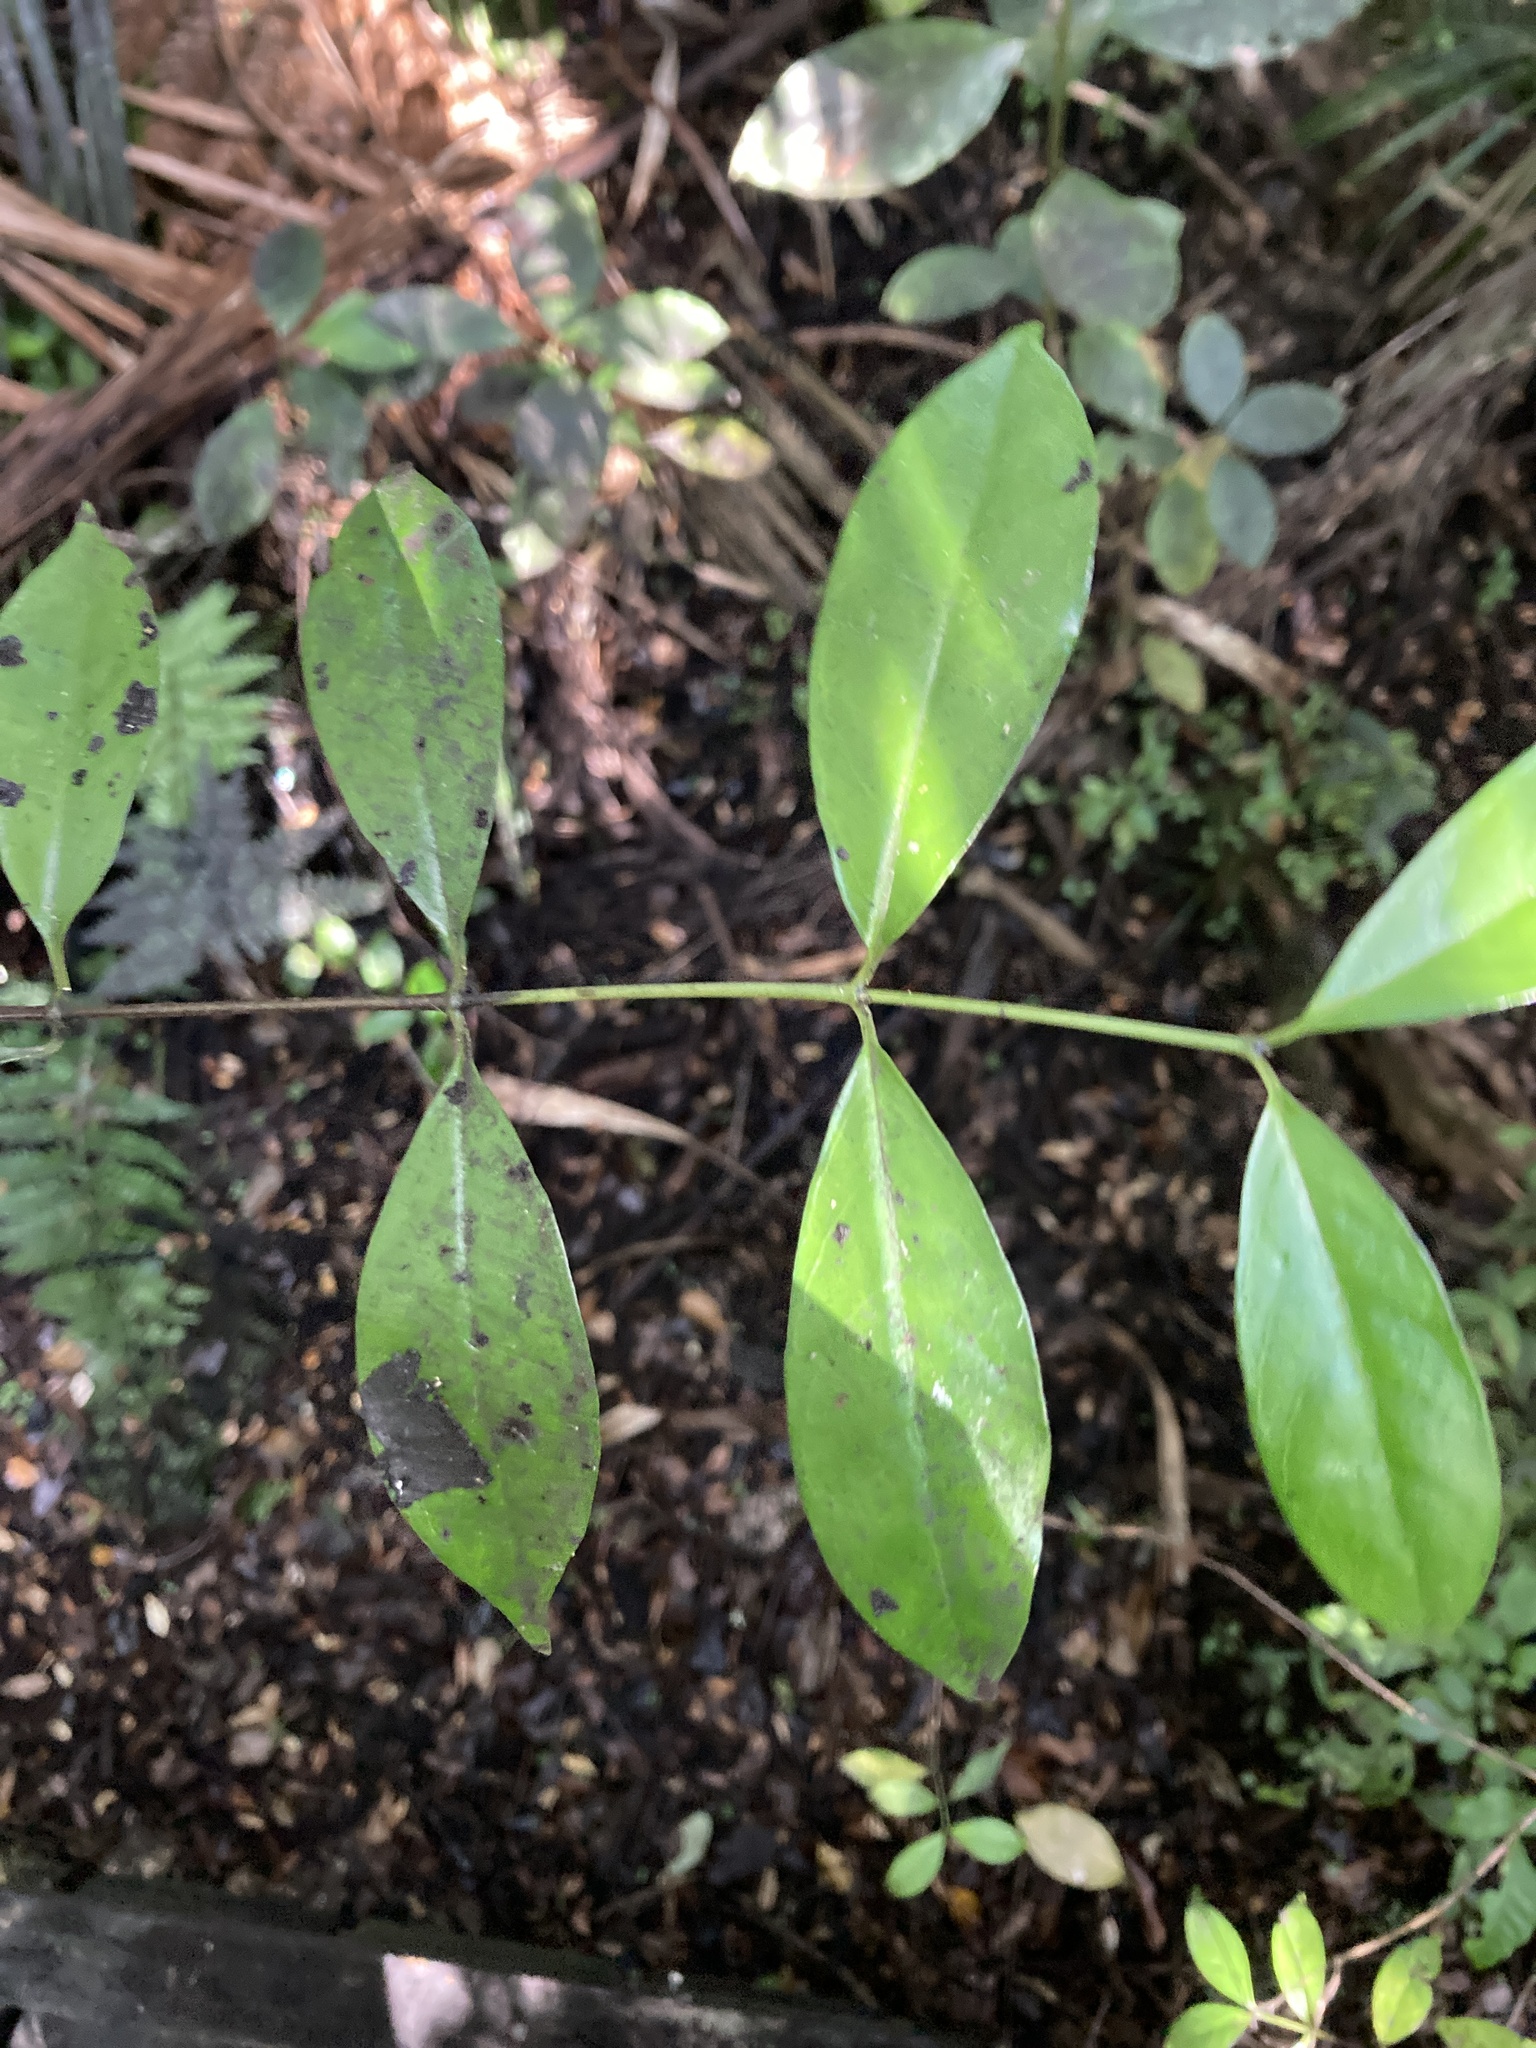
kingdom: Plantae
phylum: Tracheophyta
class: Magnoliopsida
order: Gentianales
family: Loganiaceae
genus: Geniostoma
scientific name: Geniostoma ligustrifolium
